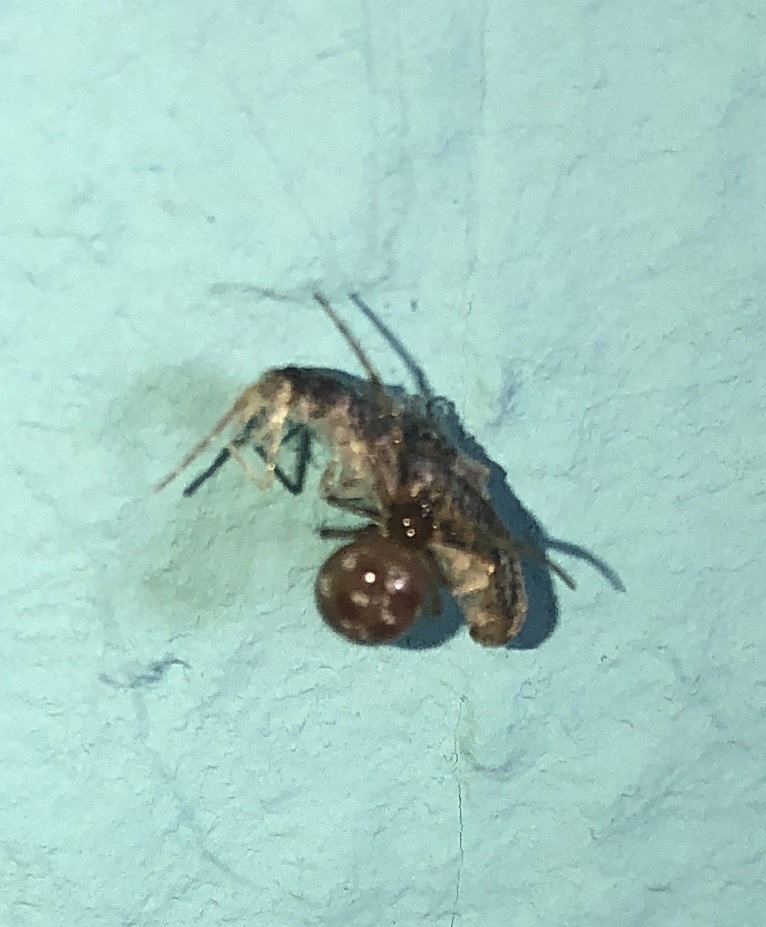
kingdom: Animalia
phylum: Arthropoda
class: Arachnida
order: Araneae
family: Theridiidae
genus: Steatoda
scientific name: Steatoda triangulosa
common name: Triangulate bud spider
